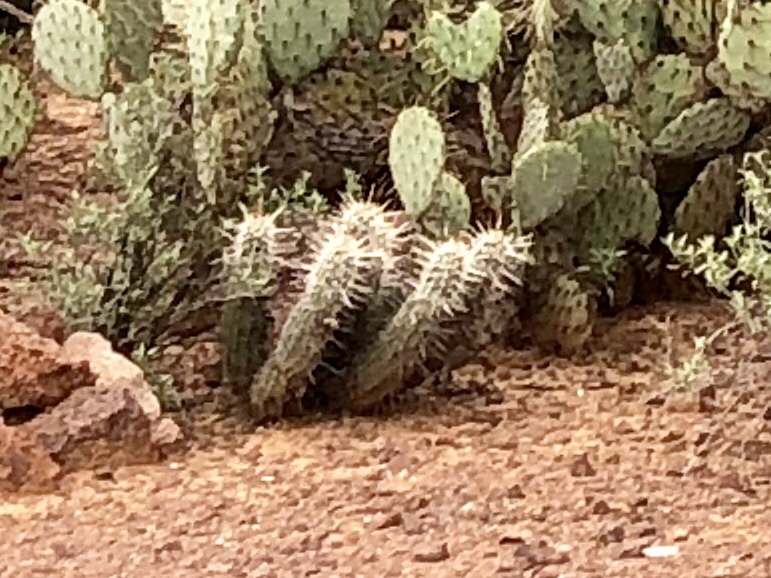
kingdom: Plantae
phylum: Tracheophyta
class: Magnoliopsida
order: Caryophyllales
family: Cactaceae
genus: Echinocereus
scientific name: Echinocereus fasciculatus
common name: Bundle hedgehog
